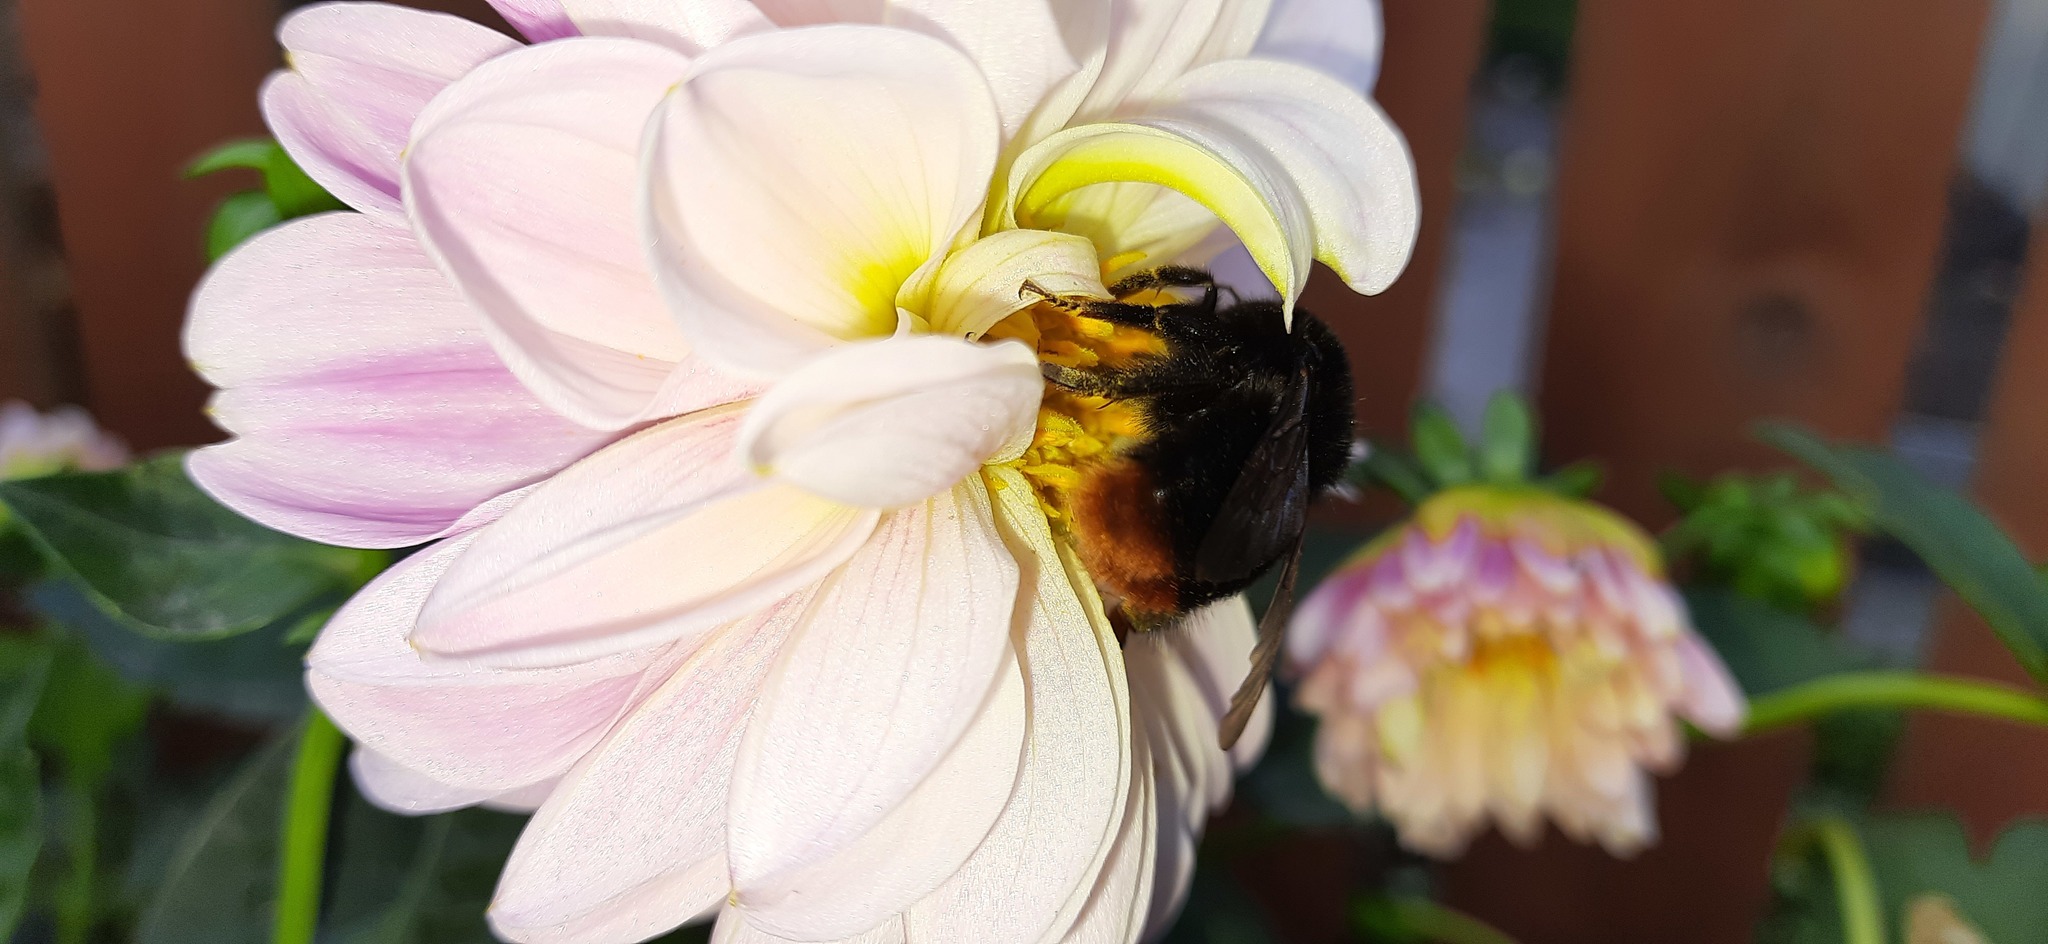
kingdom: Animalia
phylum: Arthropoda
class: Insecta
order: Hymenoptera
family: Apidae
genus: Bombus
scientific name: Bombus lapidarius
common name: Large red-tailed humble-bee
